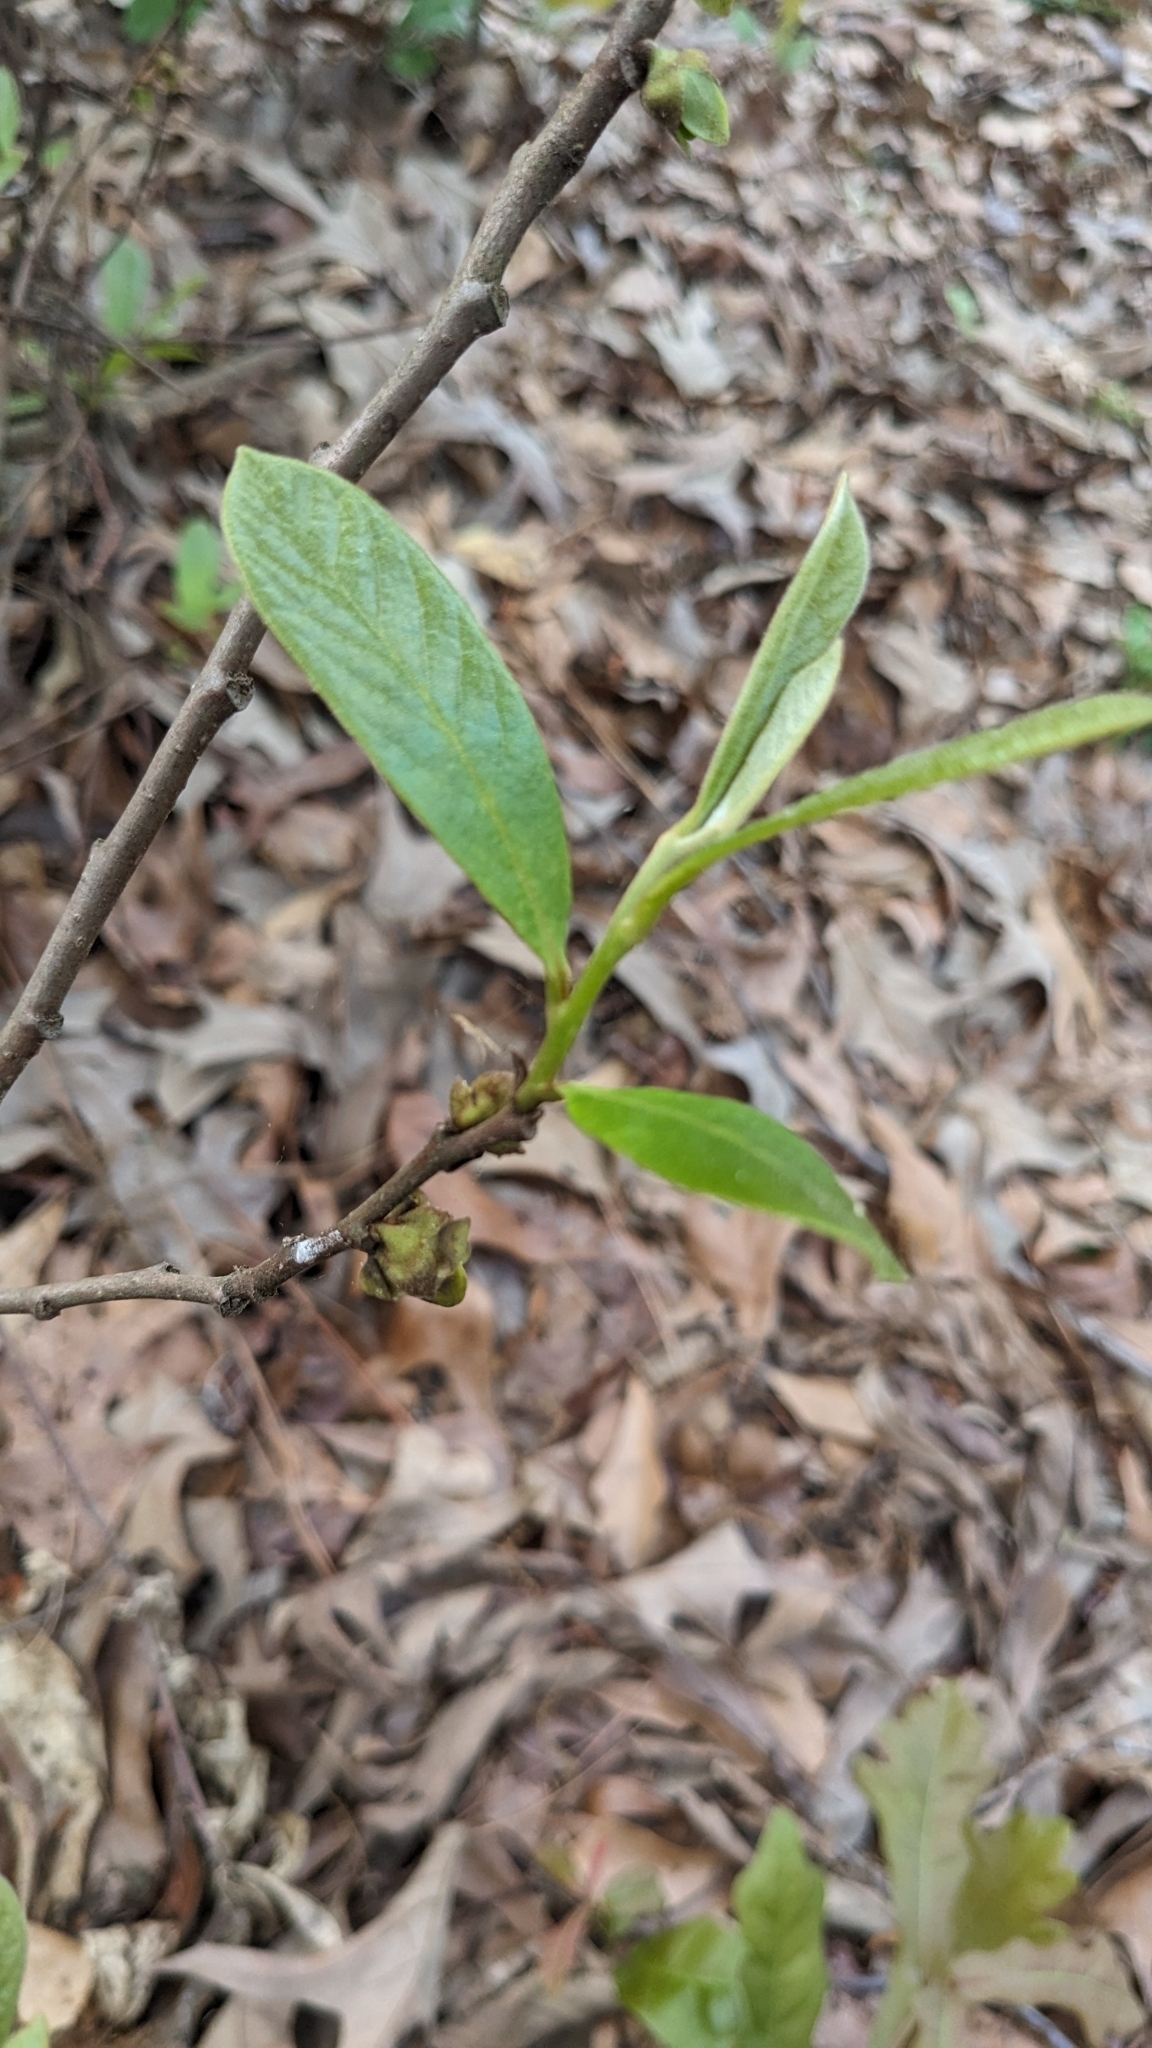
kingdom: Plantae
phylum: Tracheophyta
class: Magnoliopsida
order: Magnoliales
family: Annonaceae
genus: Asimina
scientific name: Asimina parviflora
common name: Dwarf pawpaw
